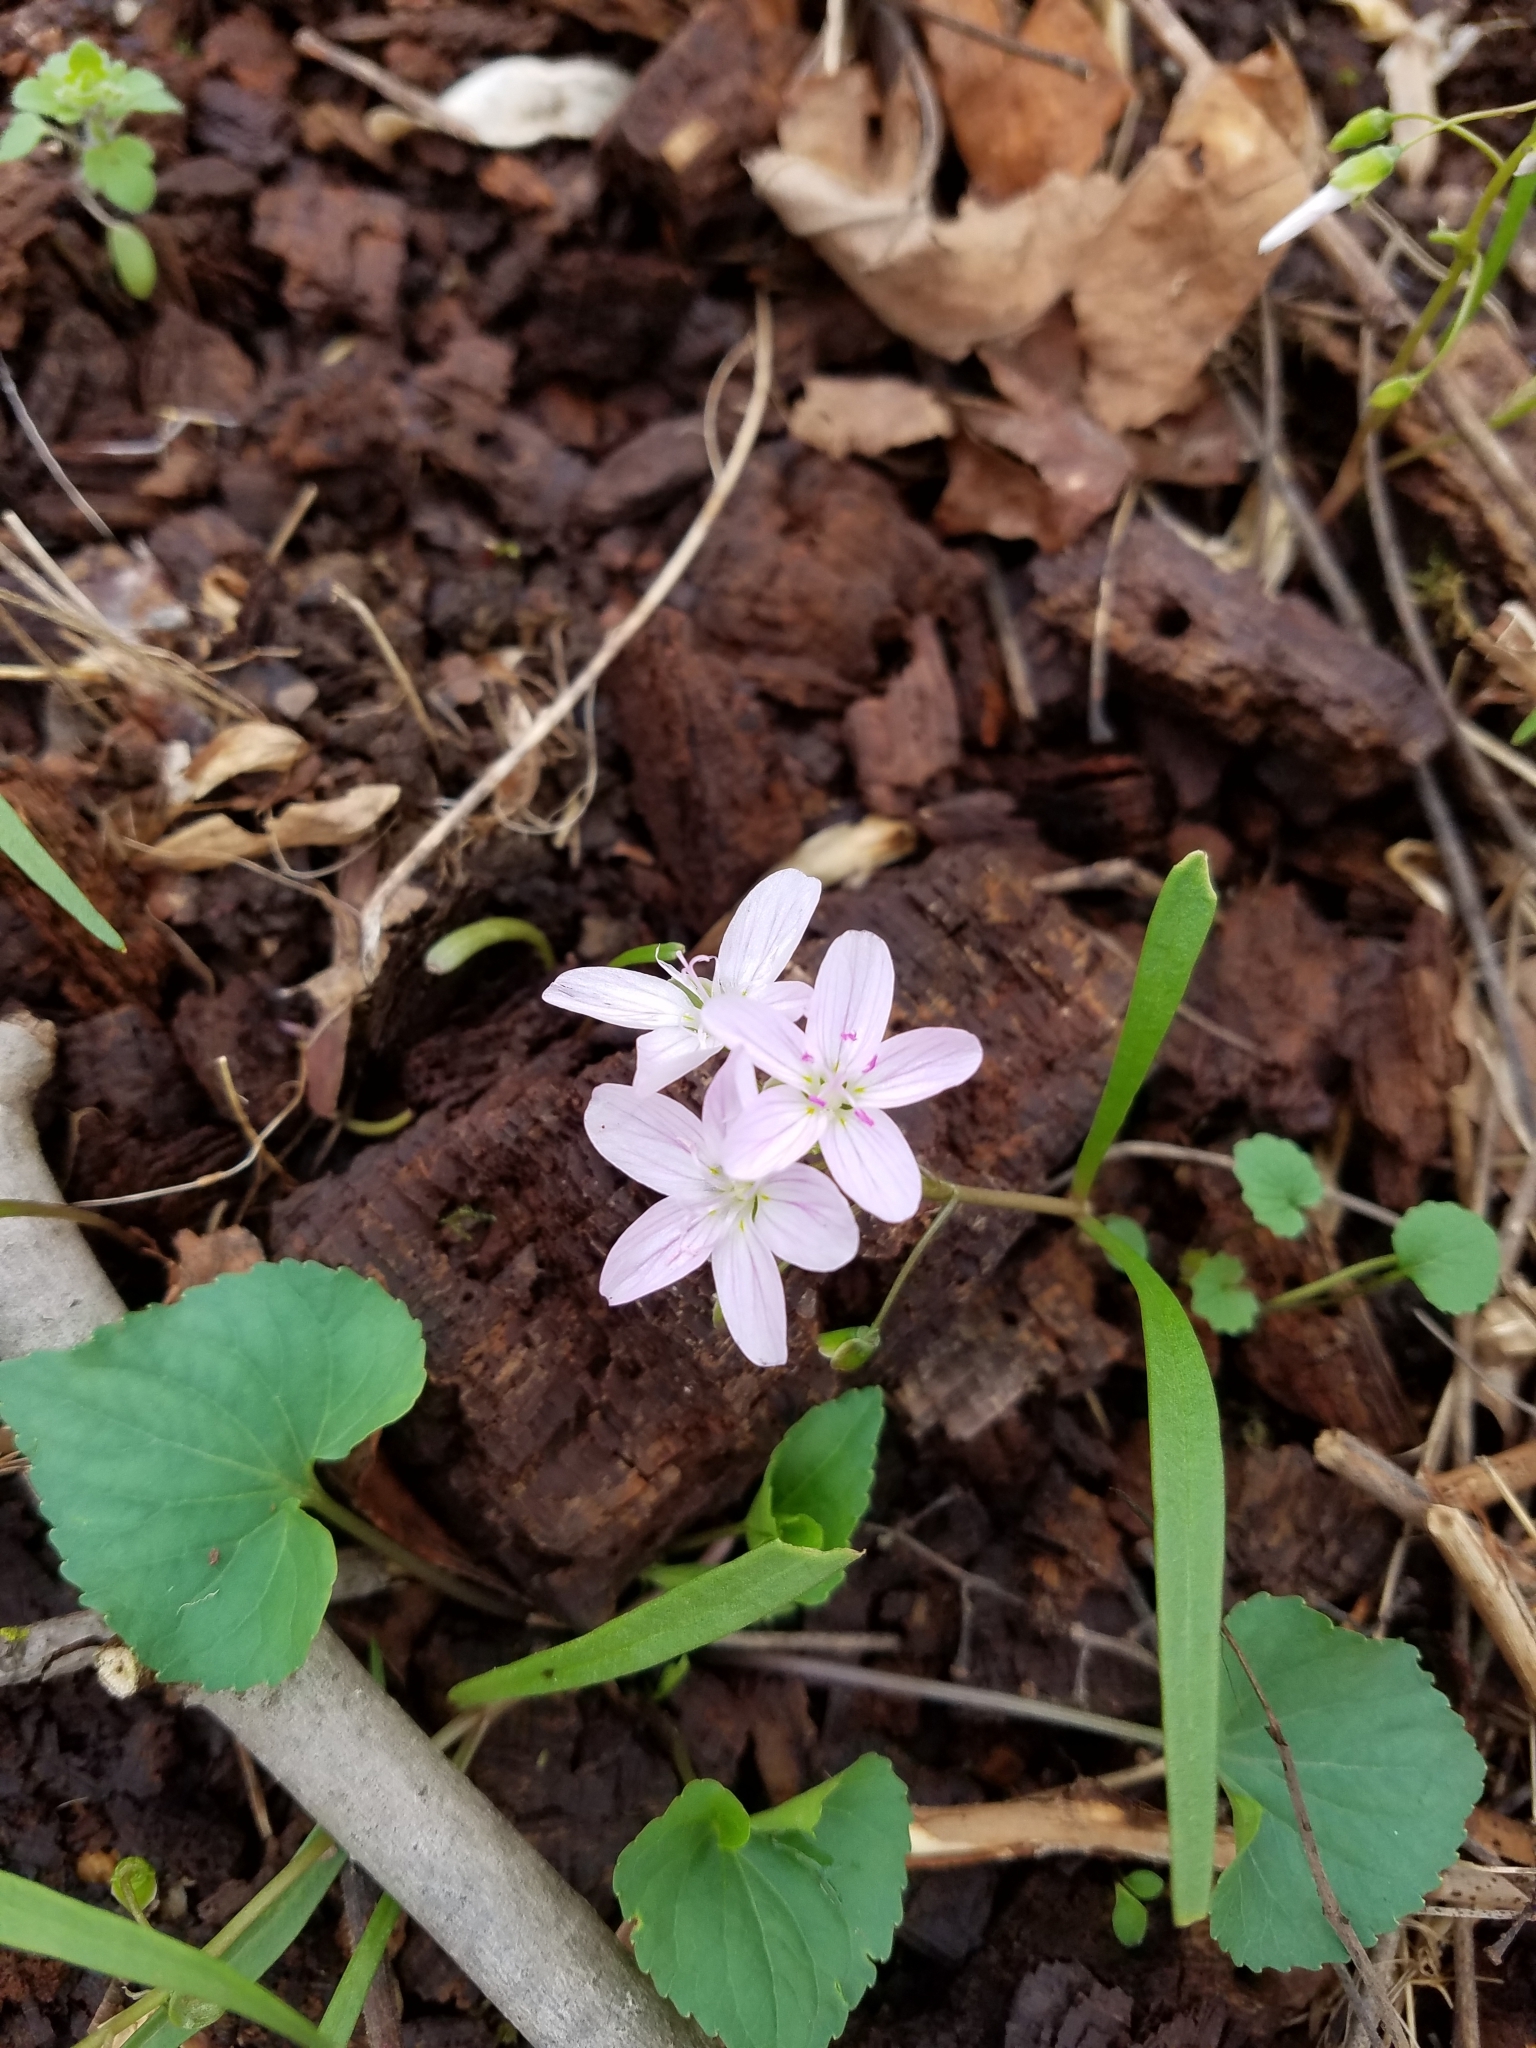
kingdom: Plantae
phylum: Tracheophyta
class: Magnoliopsida
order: Caryophyllales
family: Montiaceae
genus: Claytonia
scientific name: Claytonia virginica
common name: Virginia springbeauty
